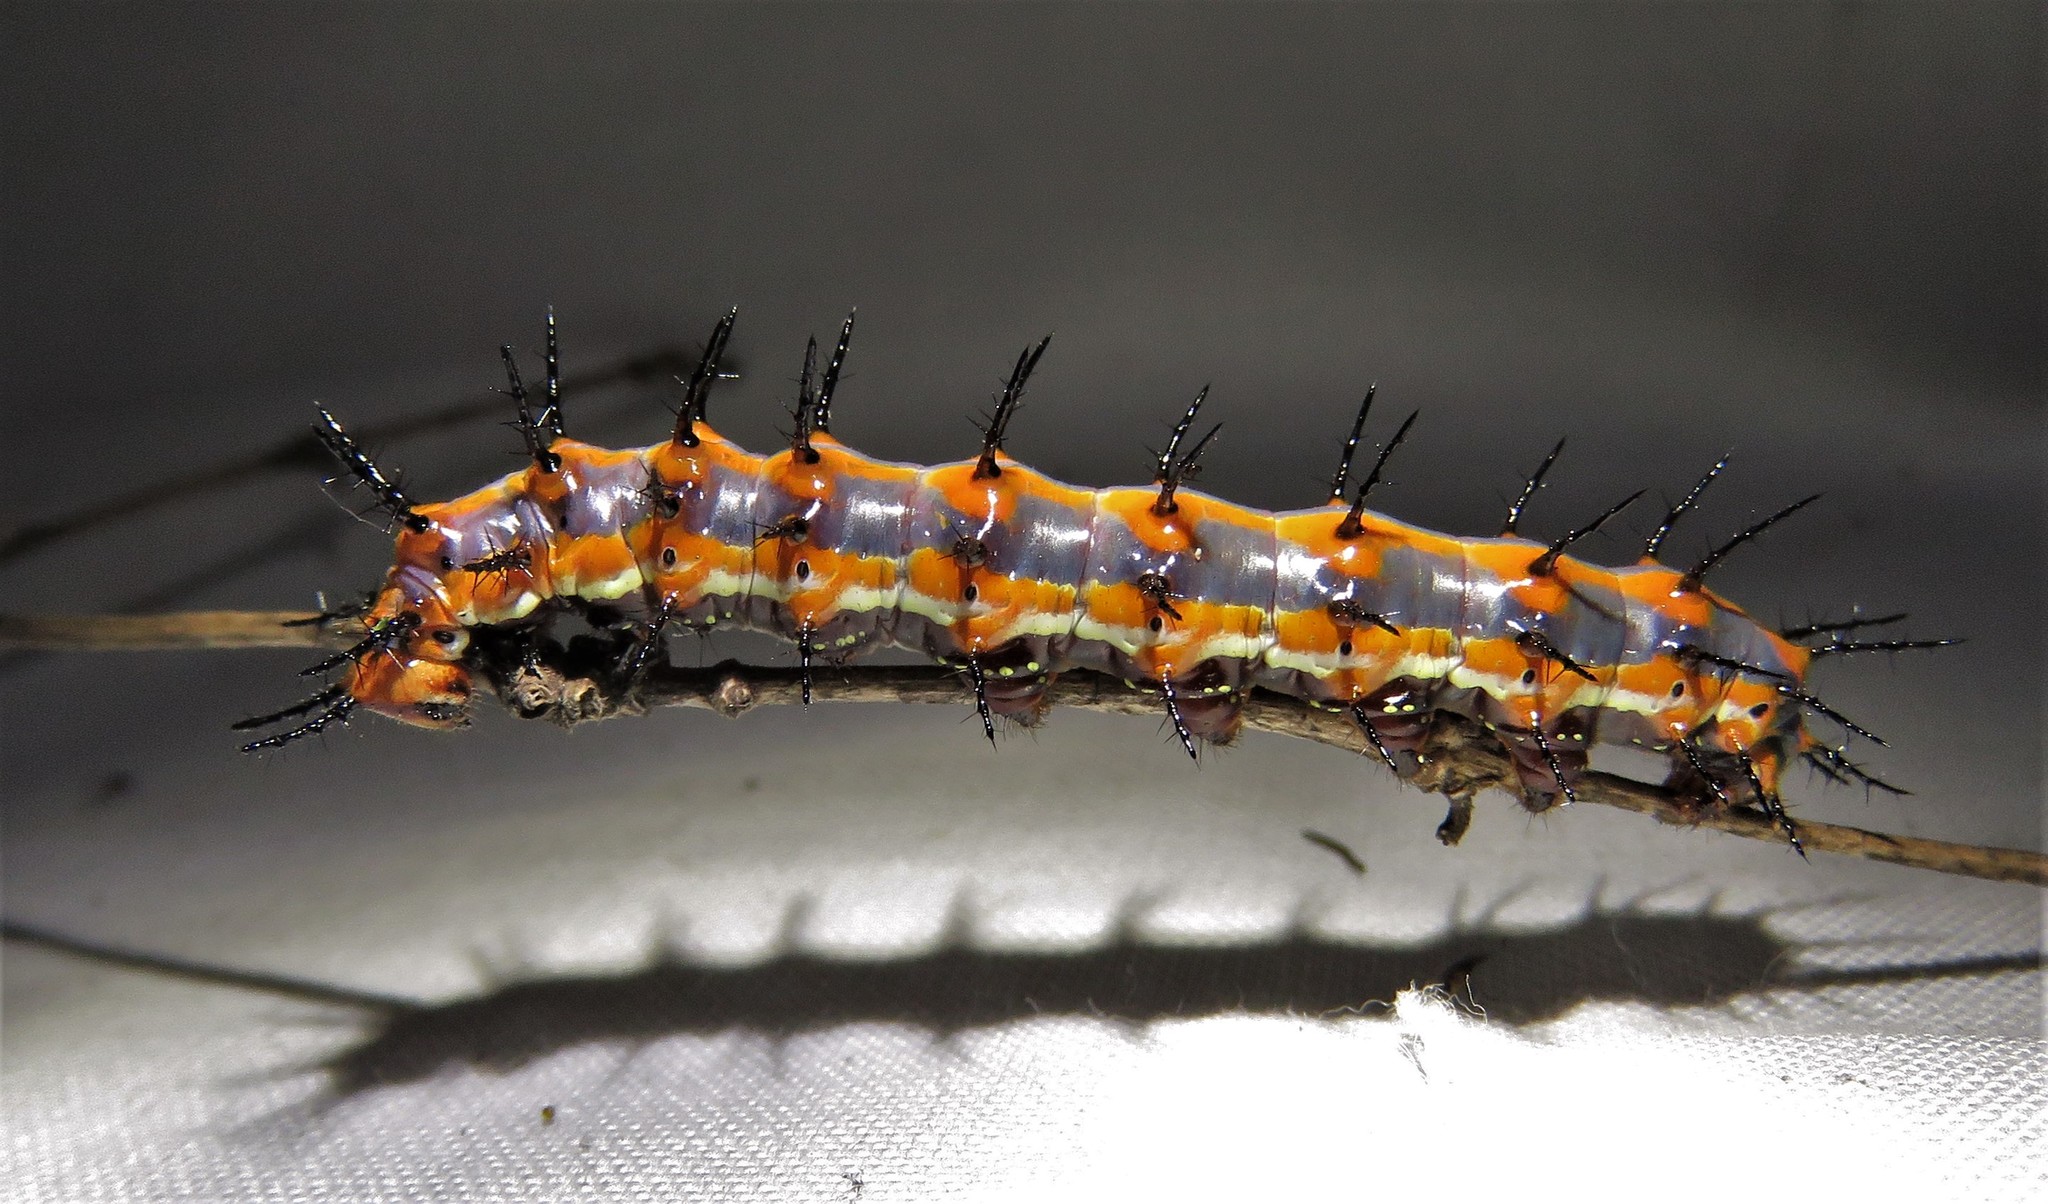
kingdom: Animalia
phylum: Arthropoda
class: Insecta
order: Lepidoptera
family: Nymphalidae
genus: Dione
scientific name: Dione vanillae
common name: Gulf fritillary
